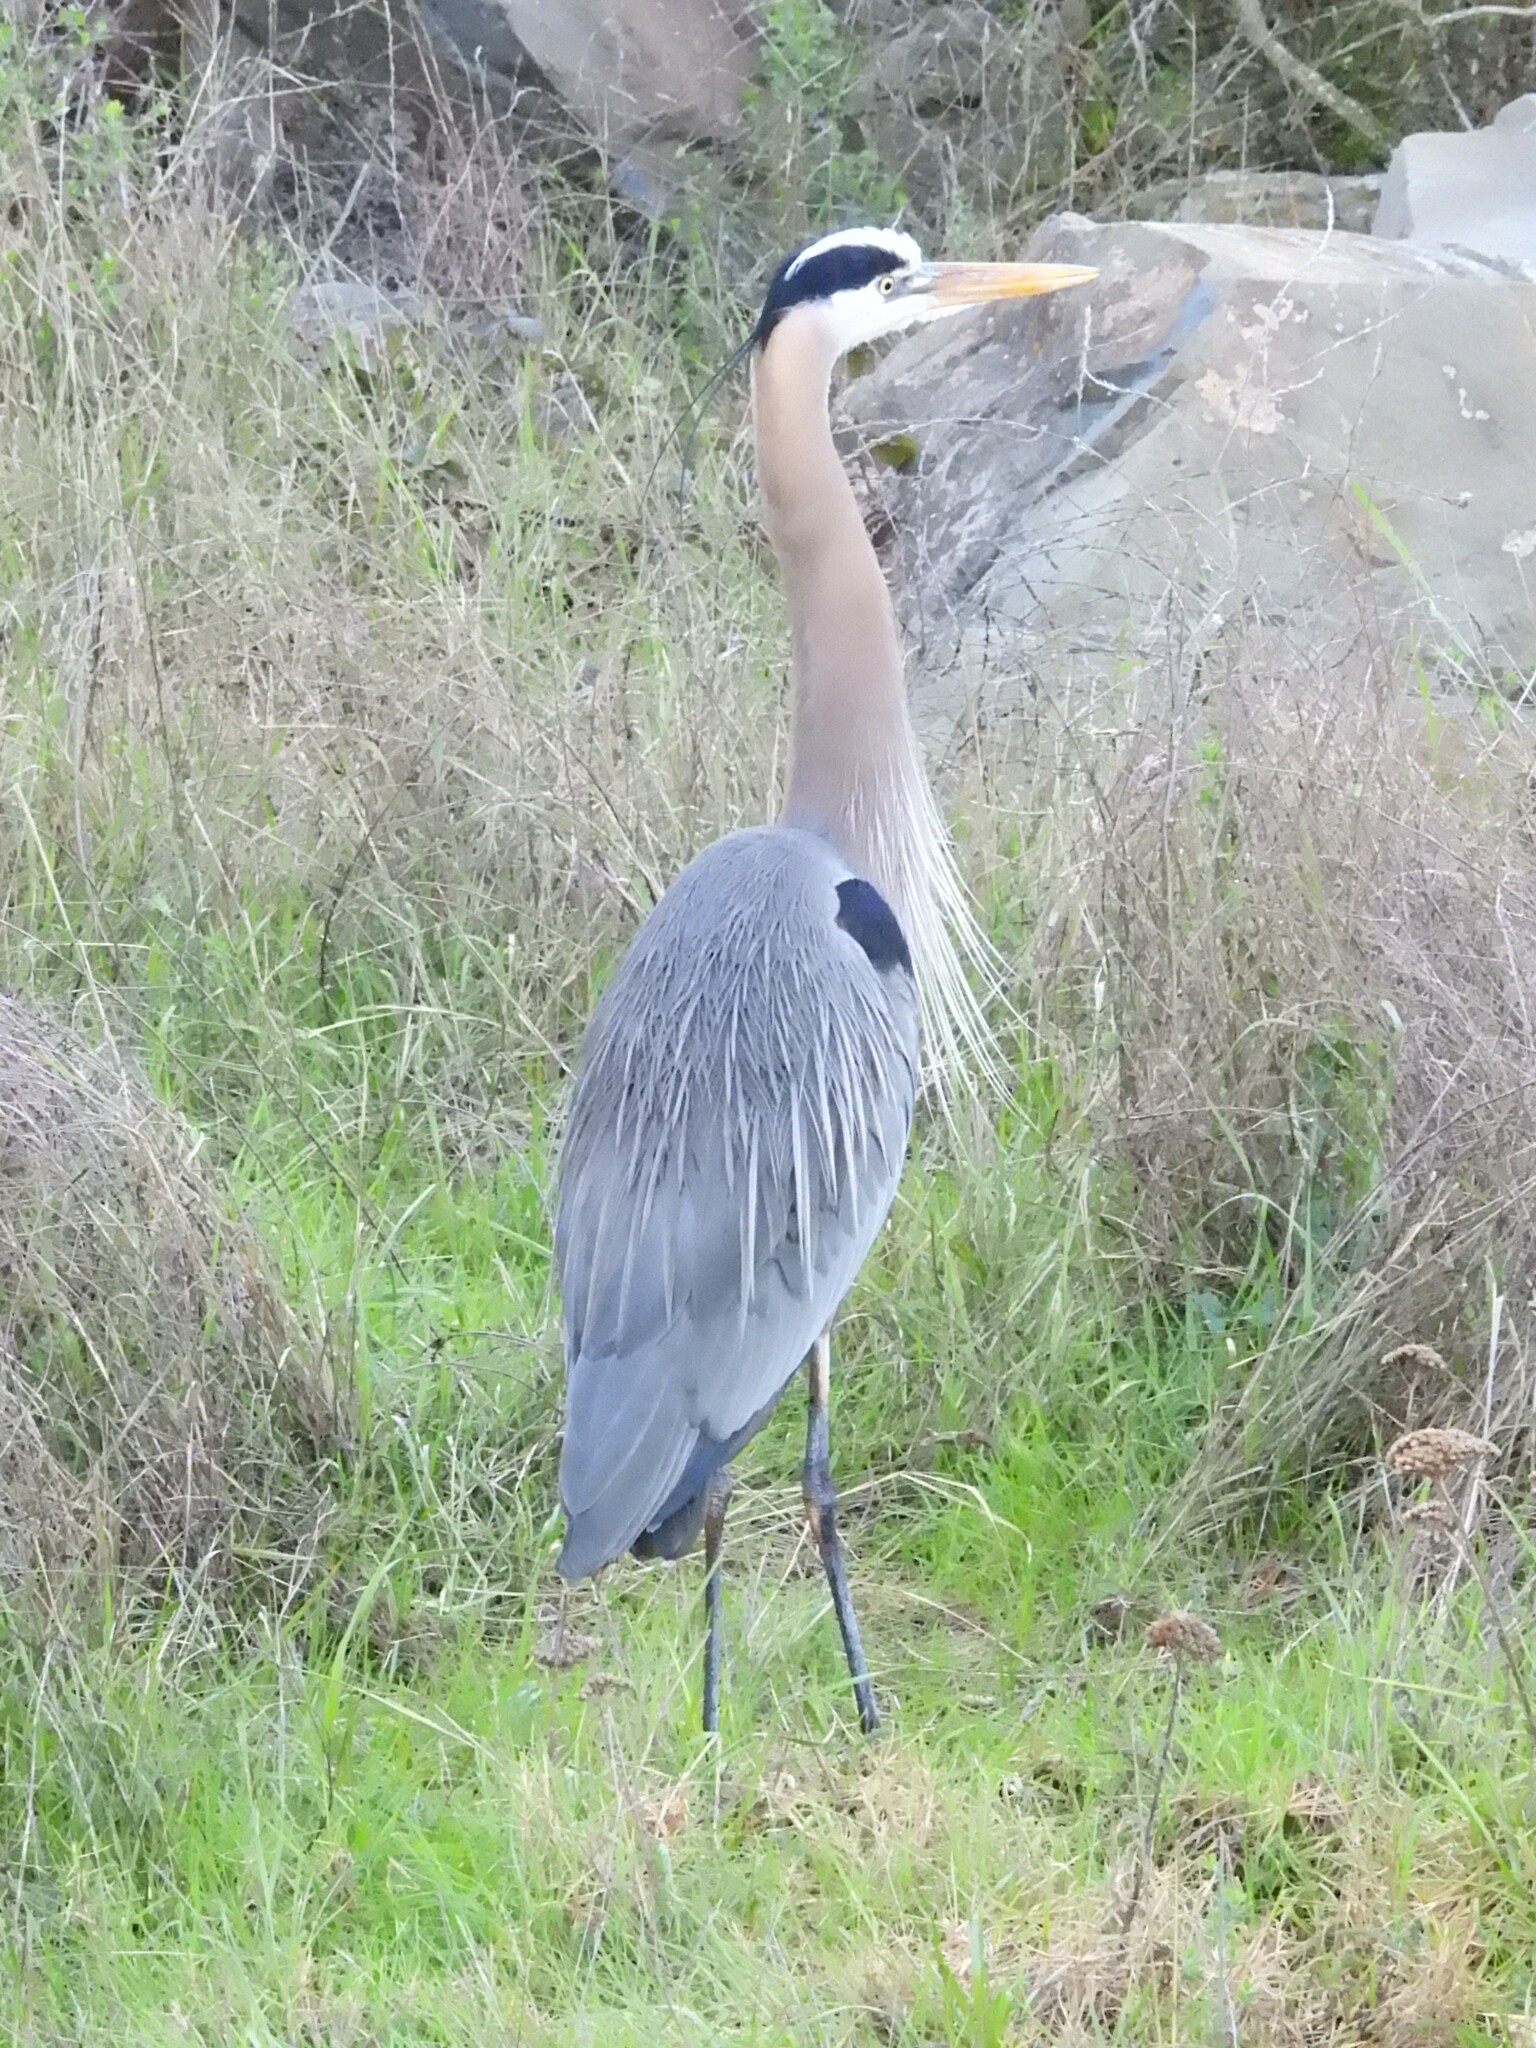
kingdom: Animalia
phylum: Chordata
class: Aves
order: Pelecaniformes
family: Ardeidae
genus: Ardea
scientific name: Ardea herodias
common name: Great blue heron
